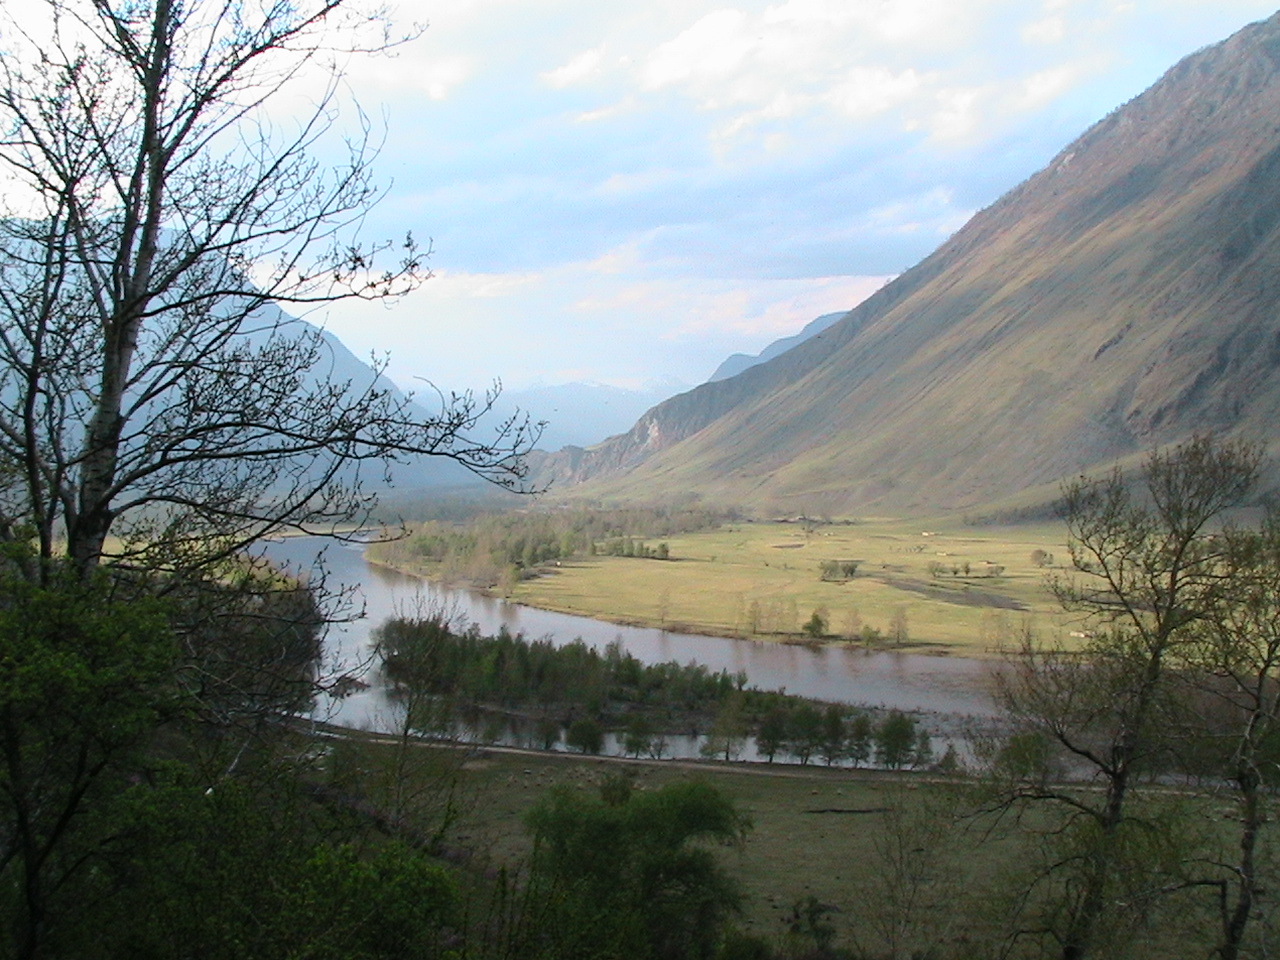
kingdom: Plantae
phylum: Tracheophyta
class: Magnoliopsida
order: Malpighiales
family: Salicaceae
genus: Populus
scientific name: Populus laurifolia
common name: Laurel-leaf poplar
